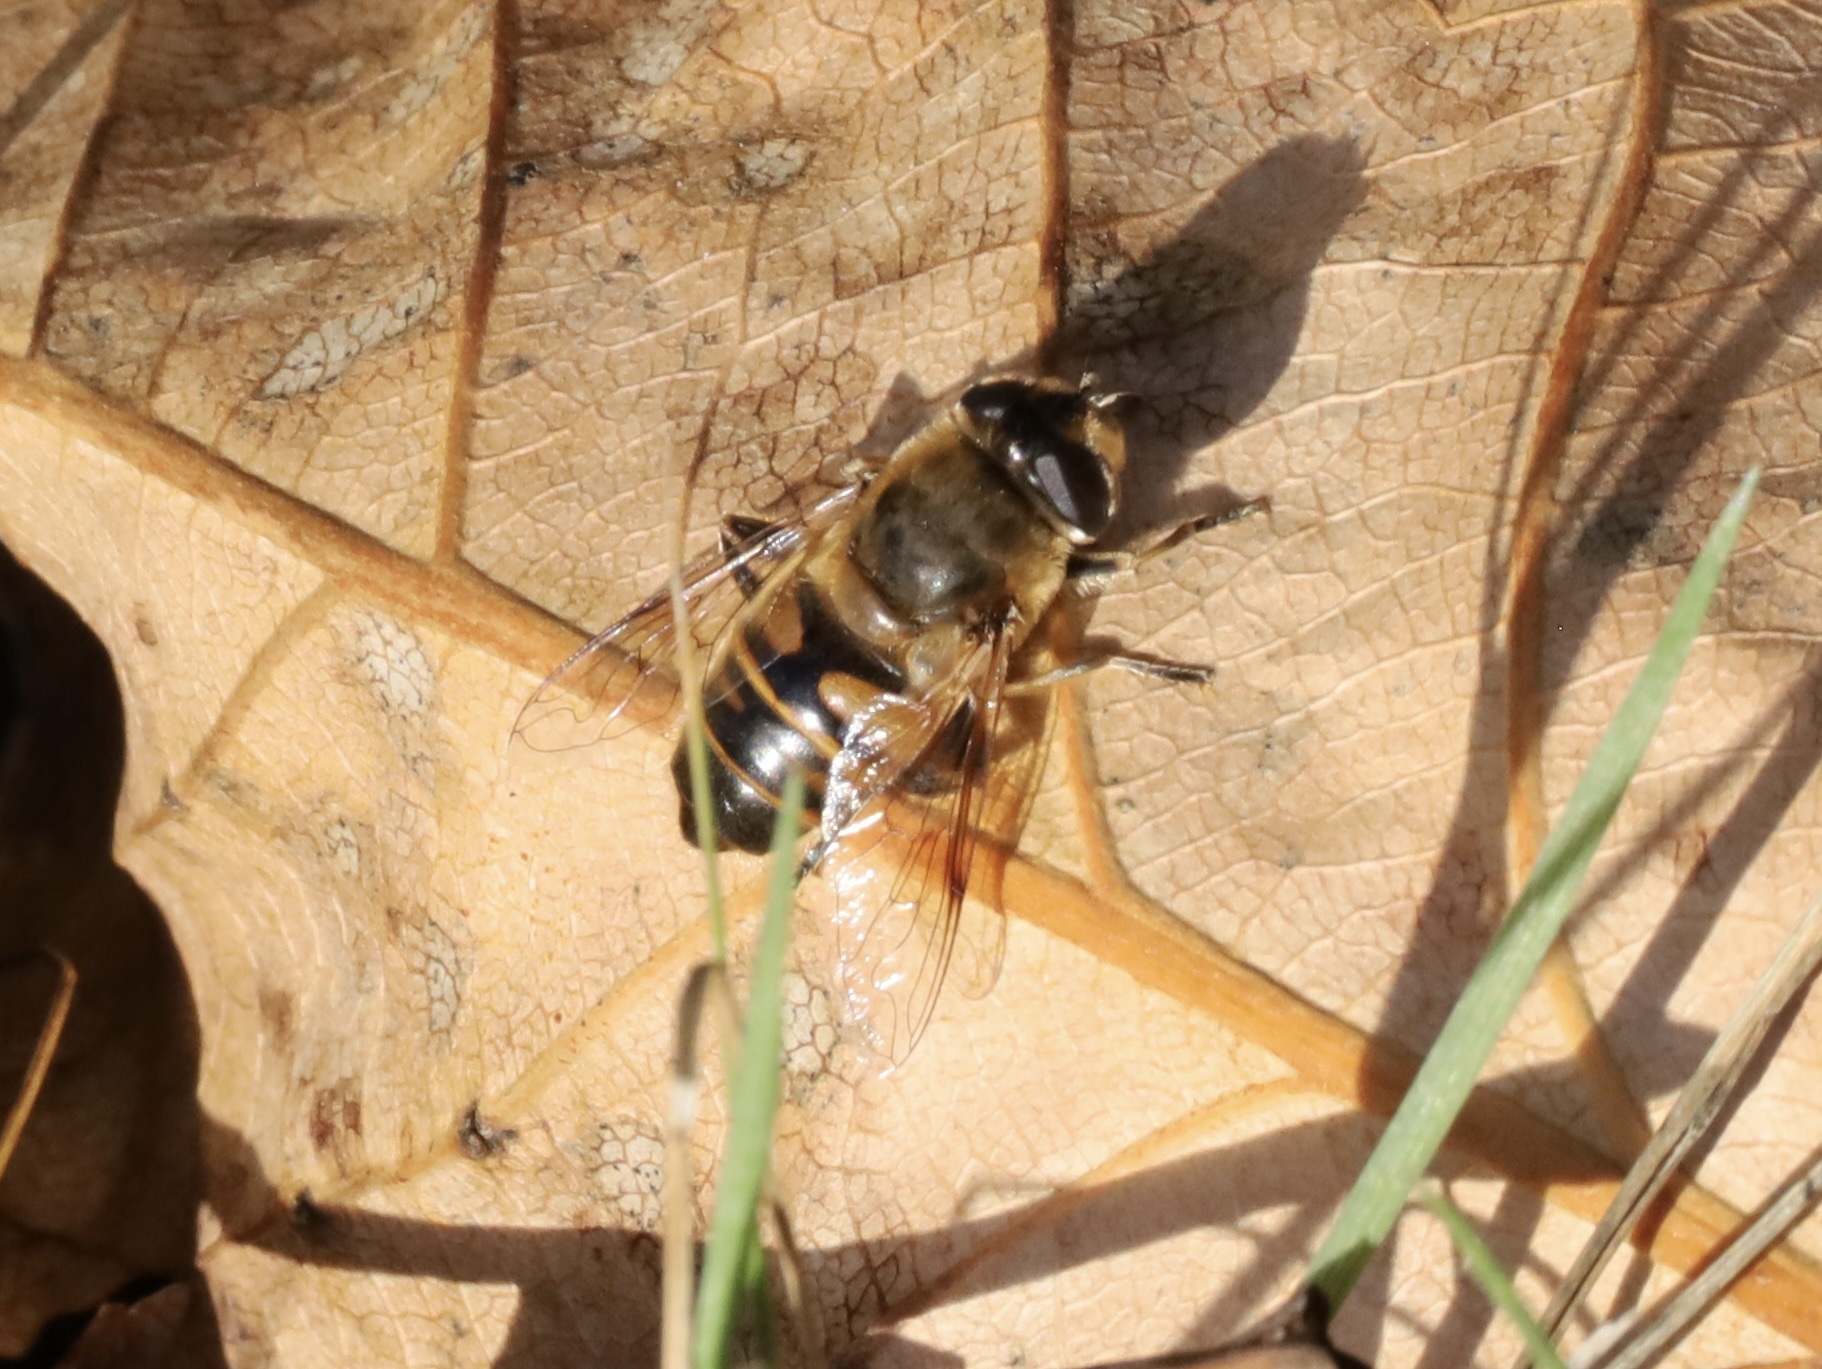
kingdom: Animalia
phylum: Arthropoda
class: Insecta
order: Diptera
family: Syrphidae
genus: Eristalis
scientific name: Eristalis tenax
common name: Drone fly
